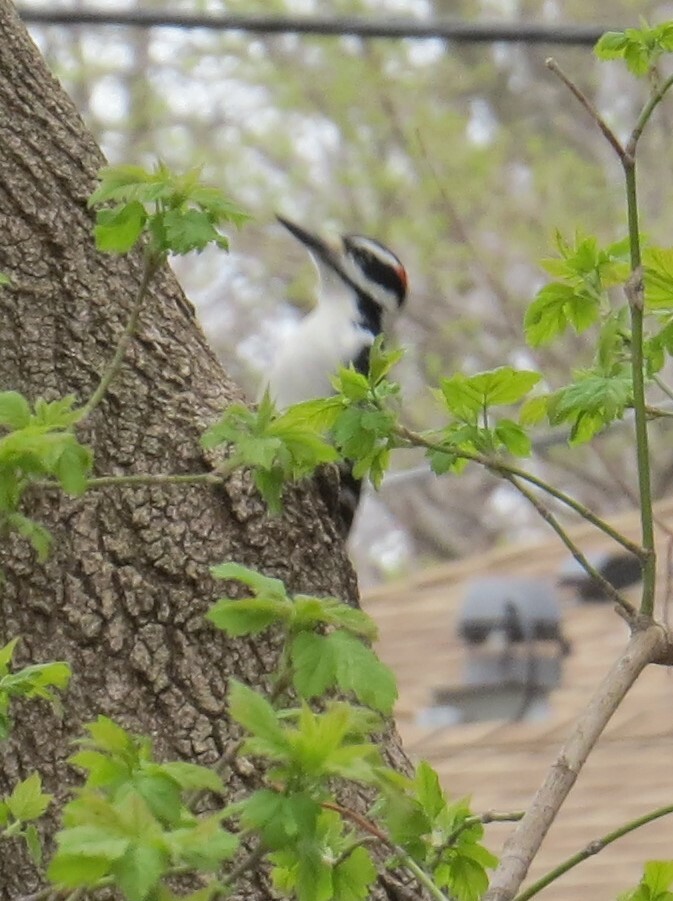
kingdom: Animalia
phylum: Chordata
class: Aves
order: Piciformes
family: Picidae
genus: Leuconotopicus
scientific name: Leuconotopicus villosus
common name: Hairy woodpecker
